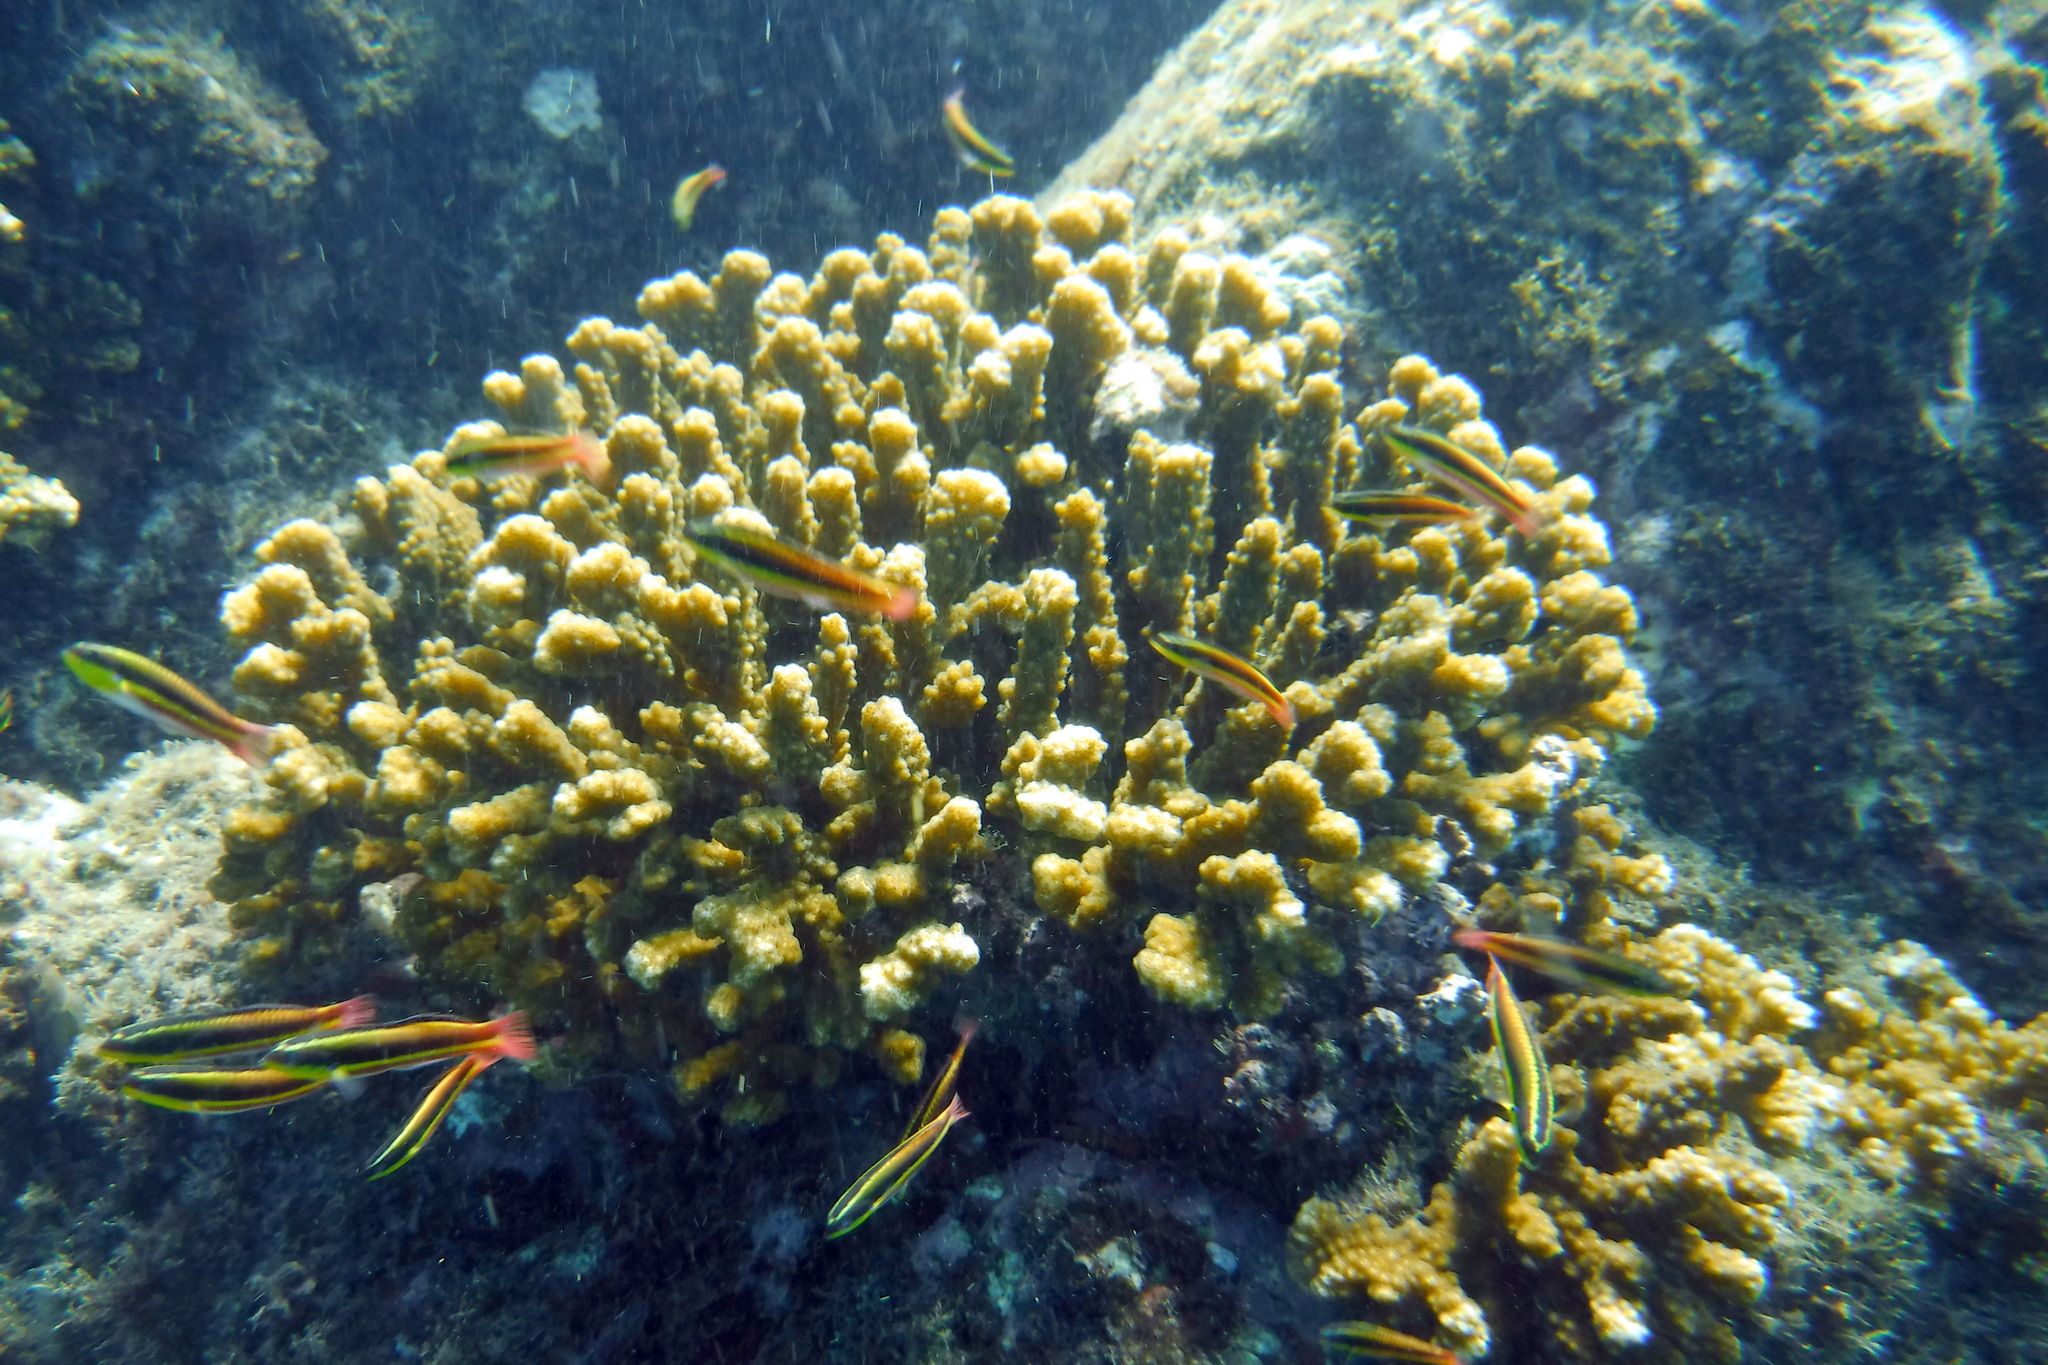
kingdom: Animalia
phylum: Chordata
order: Perciformes
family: Labridae
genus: Thalassoma
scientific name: Thalassoma lucasanum
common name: Cortez rainbow wrasse
